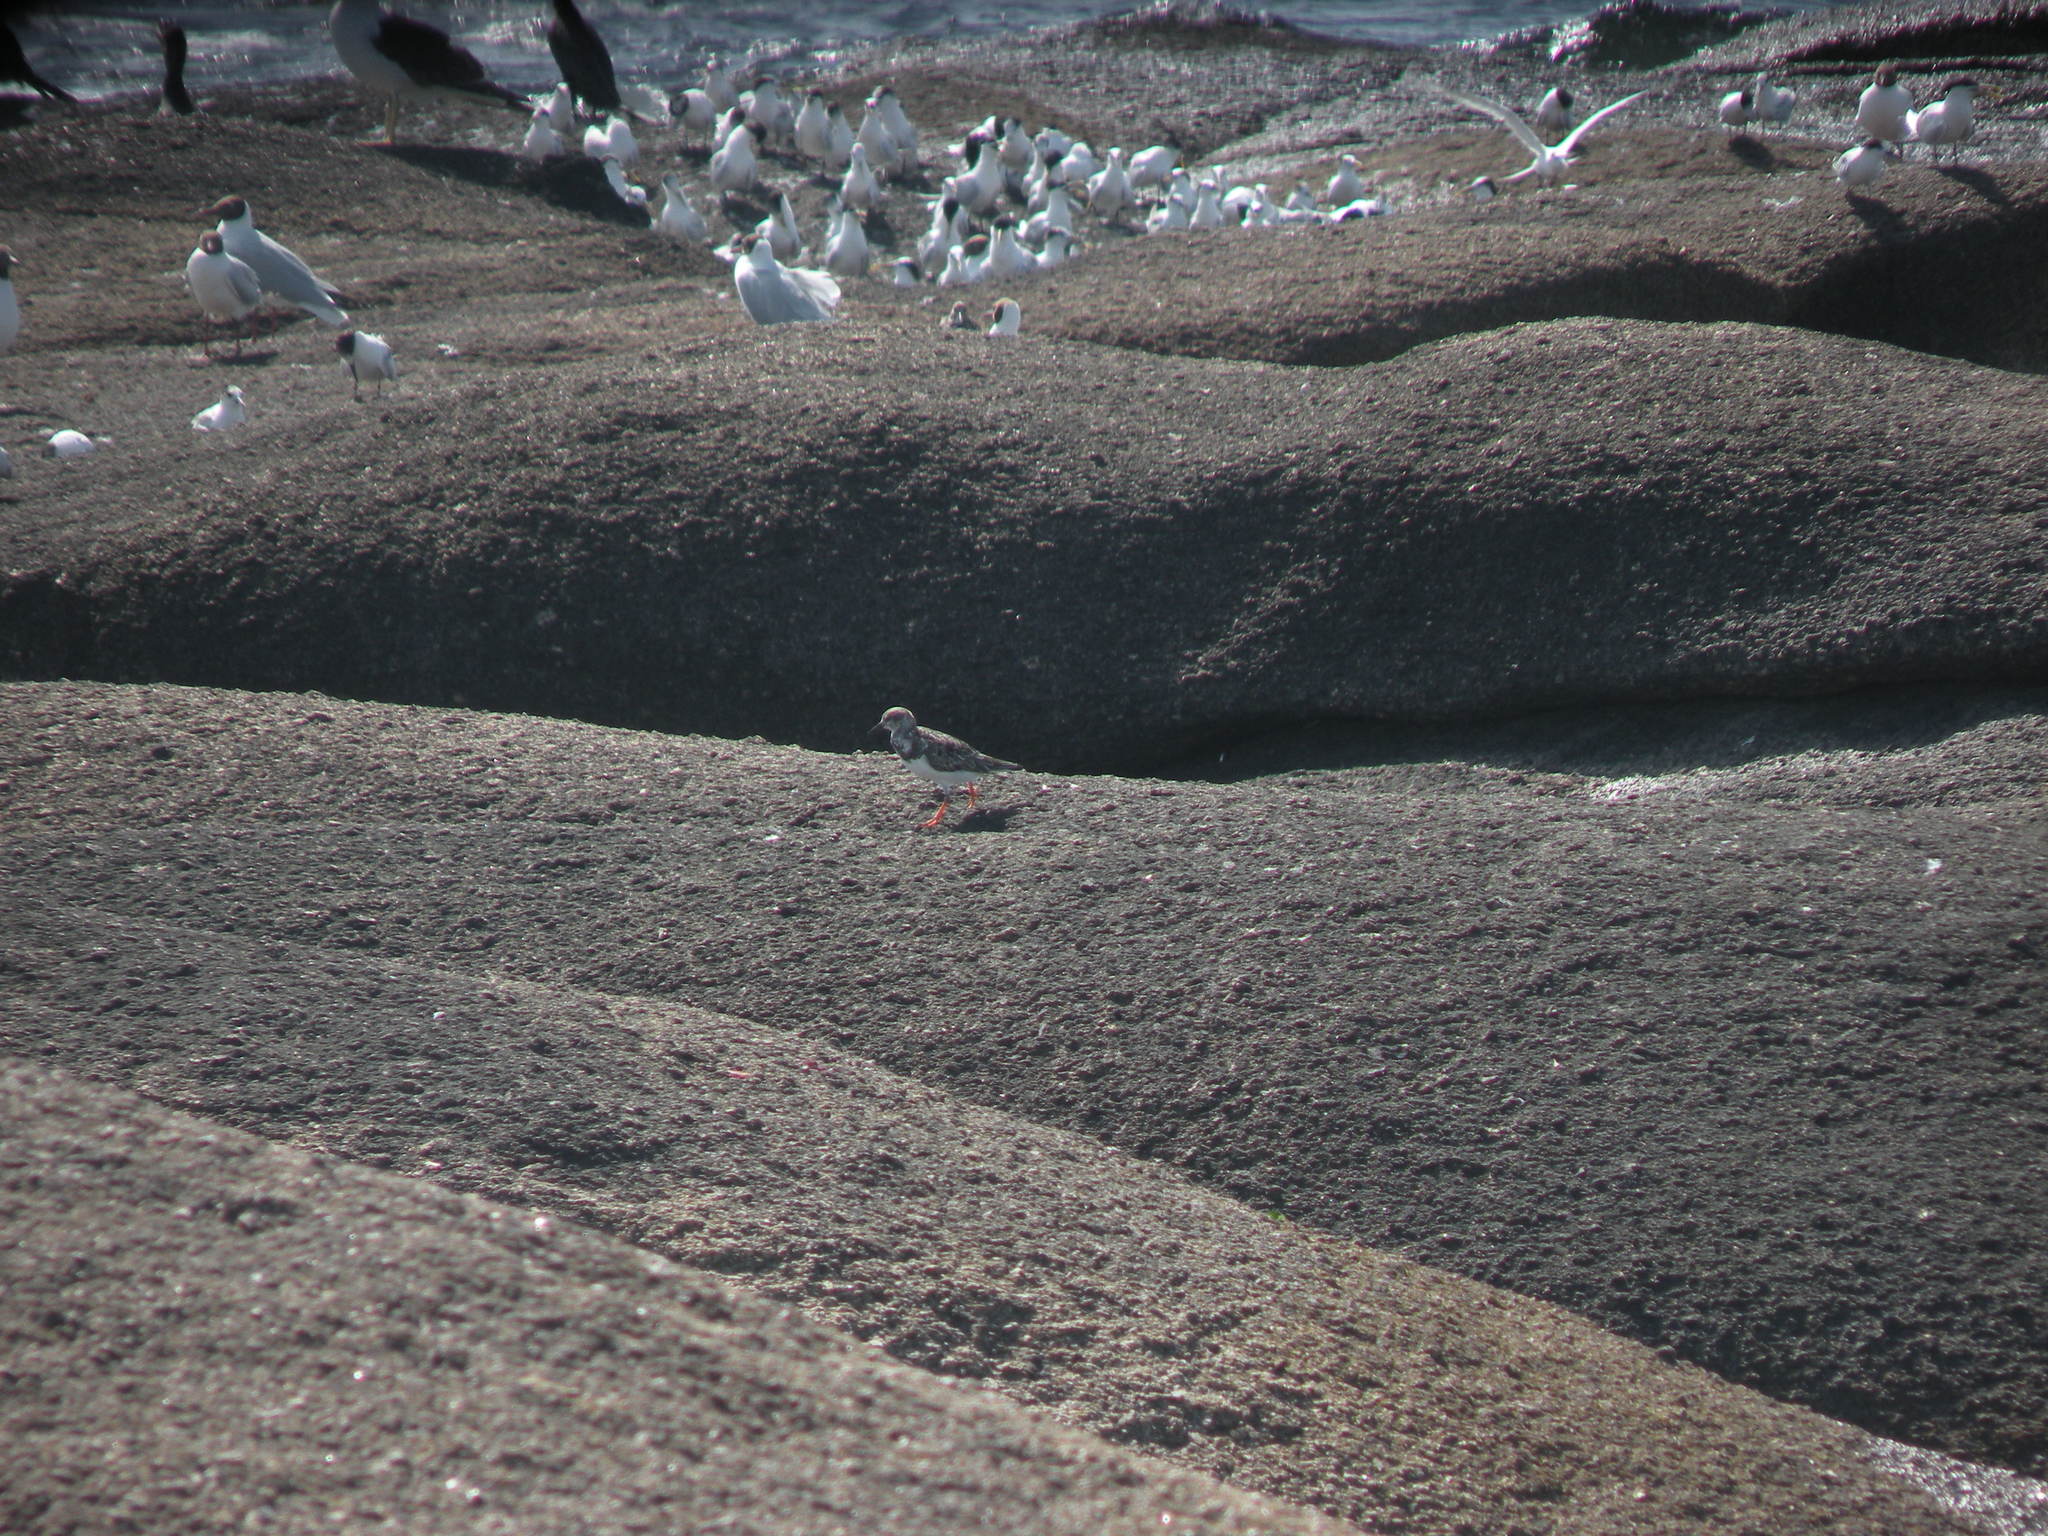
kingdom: Animalia
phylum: Chordata
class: Aves
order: Charadriiformes
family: Scolopacidae
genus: Arenaria
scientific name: Arenaria interpres
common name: Ruddy turnstone
